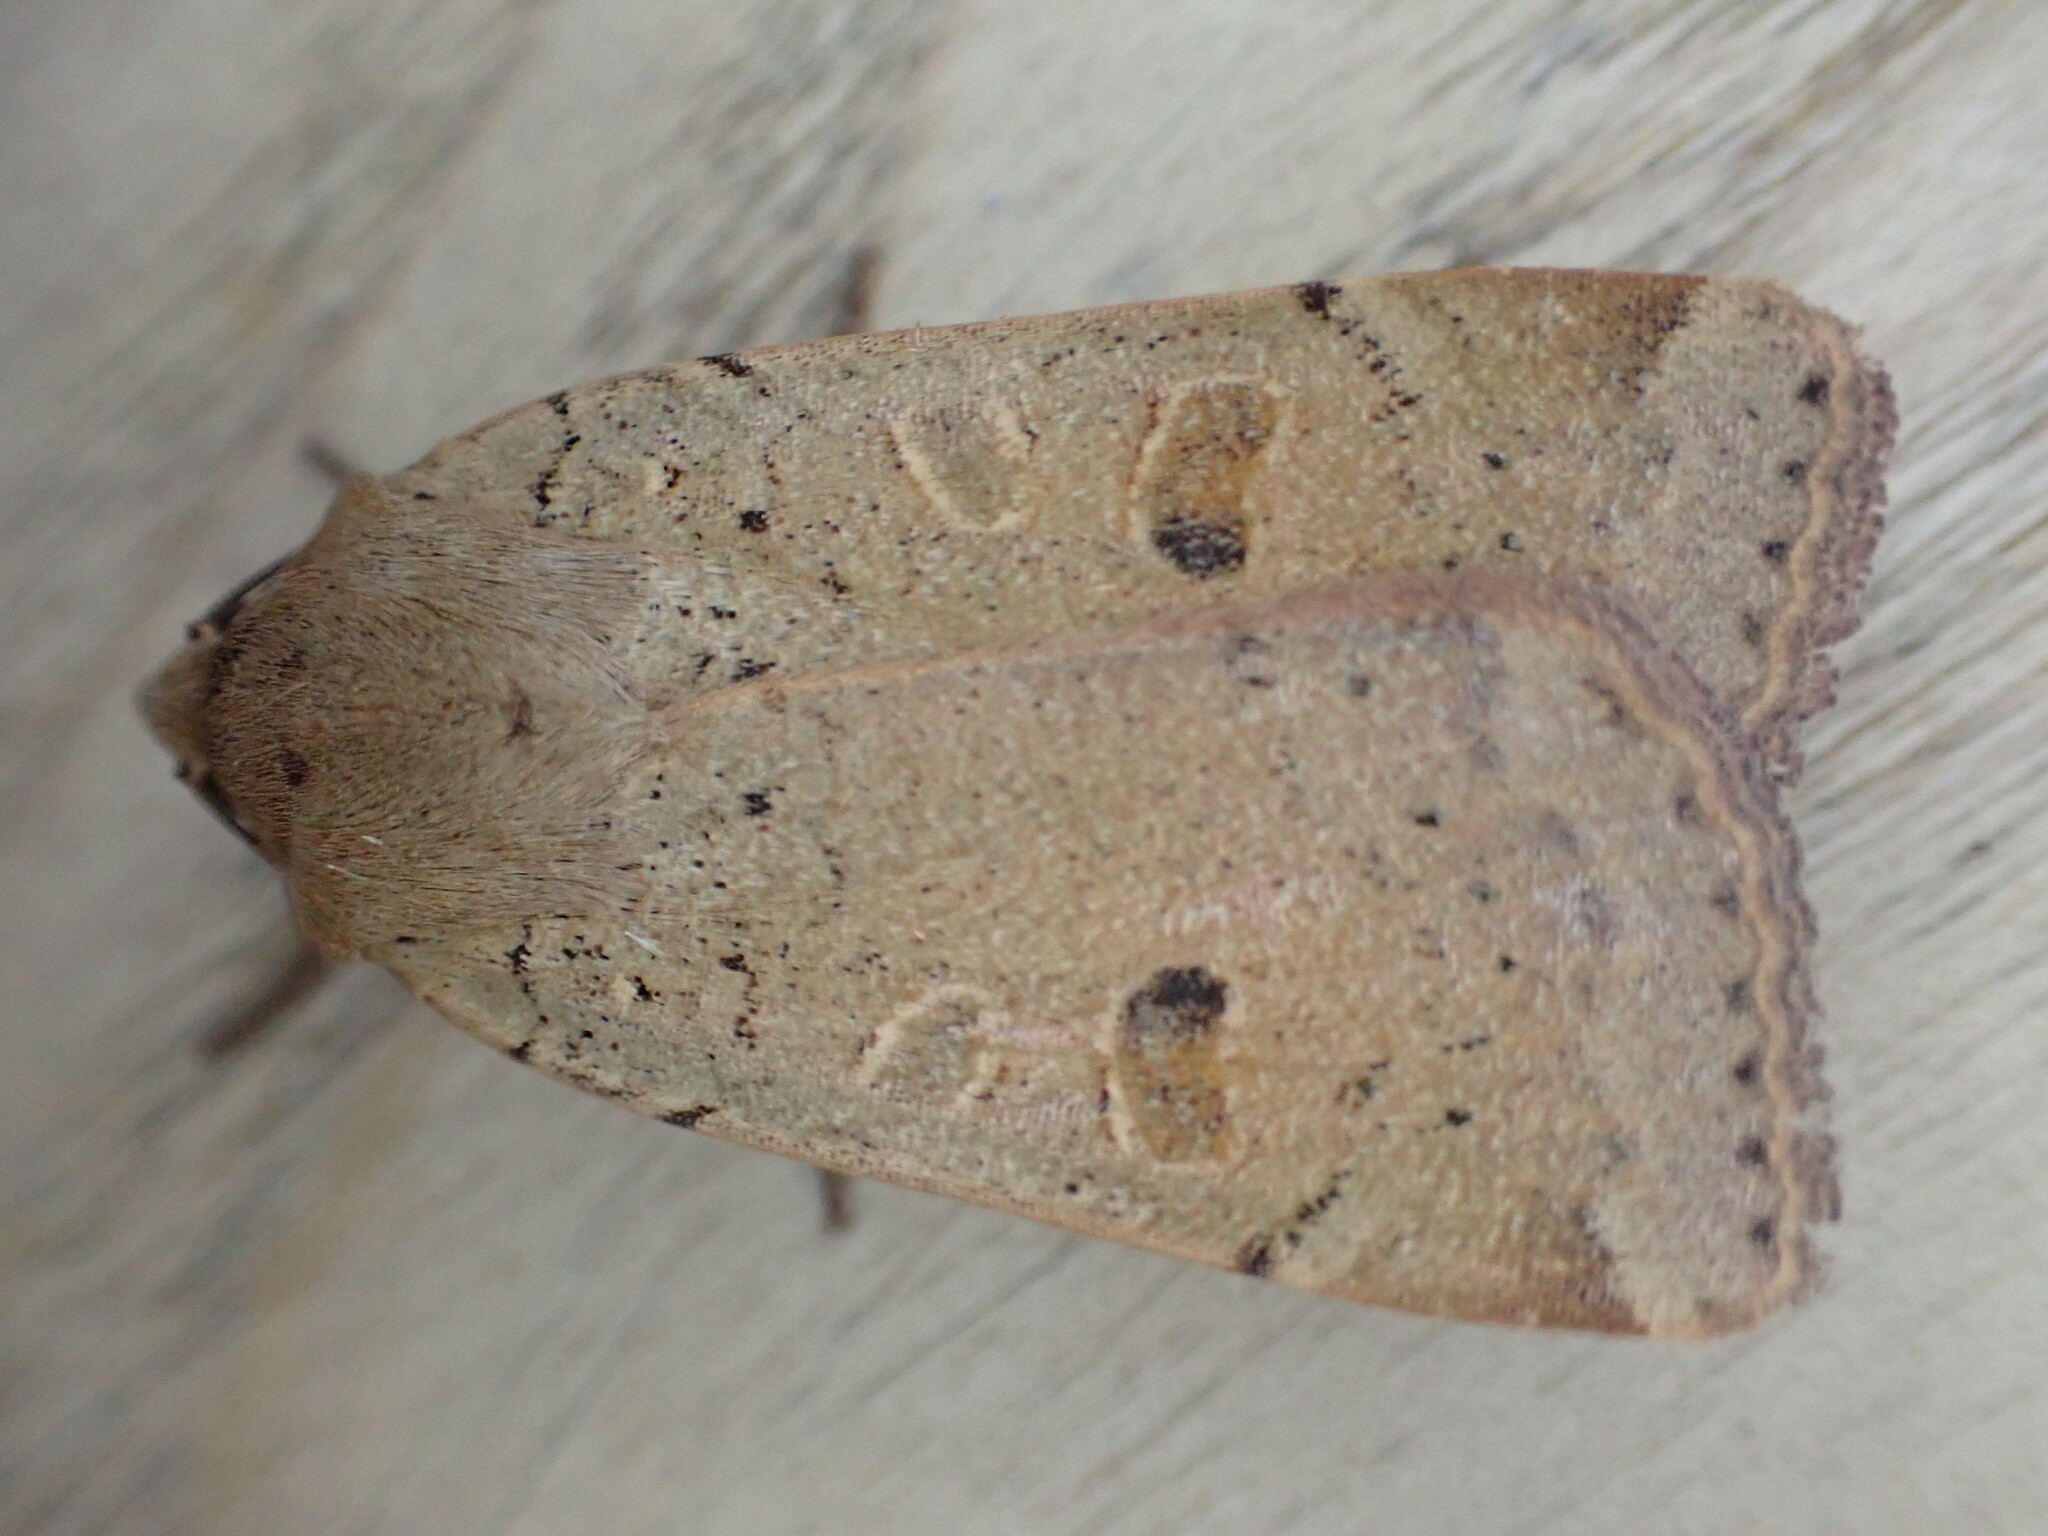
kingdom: Animalia
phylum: Arthropoda
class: Insecta
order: Lepidoptera
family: Noctuidae
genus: Noctua
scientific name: Noctua comes
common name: Lesser yellow underwing
